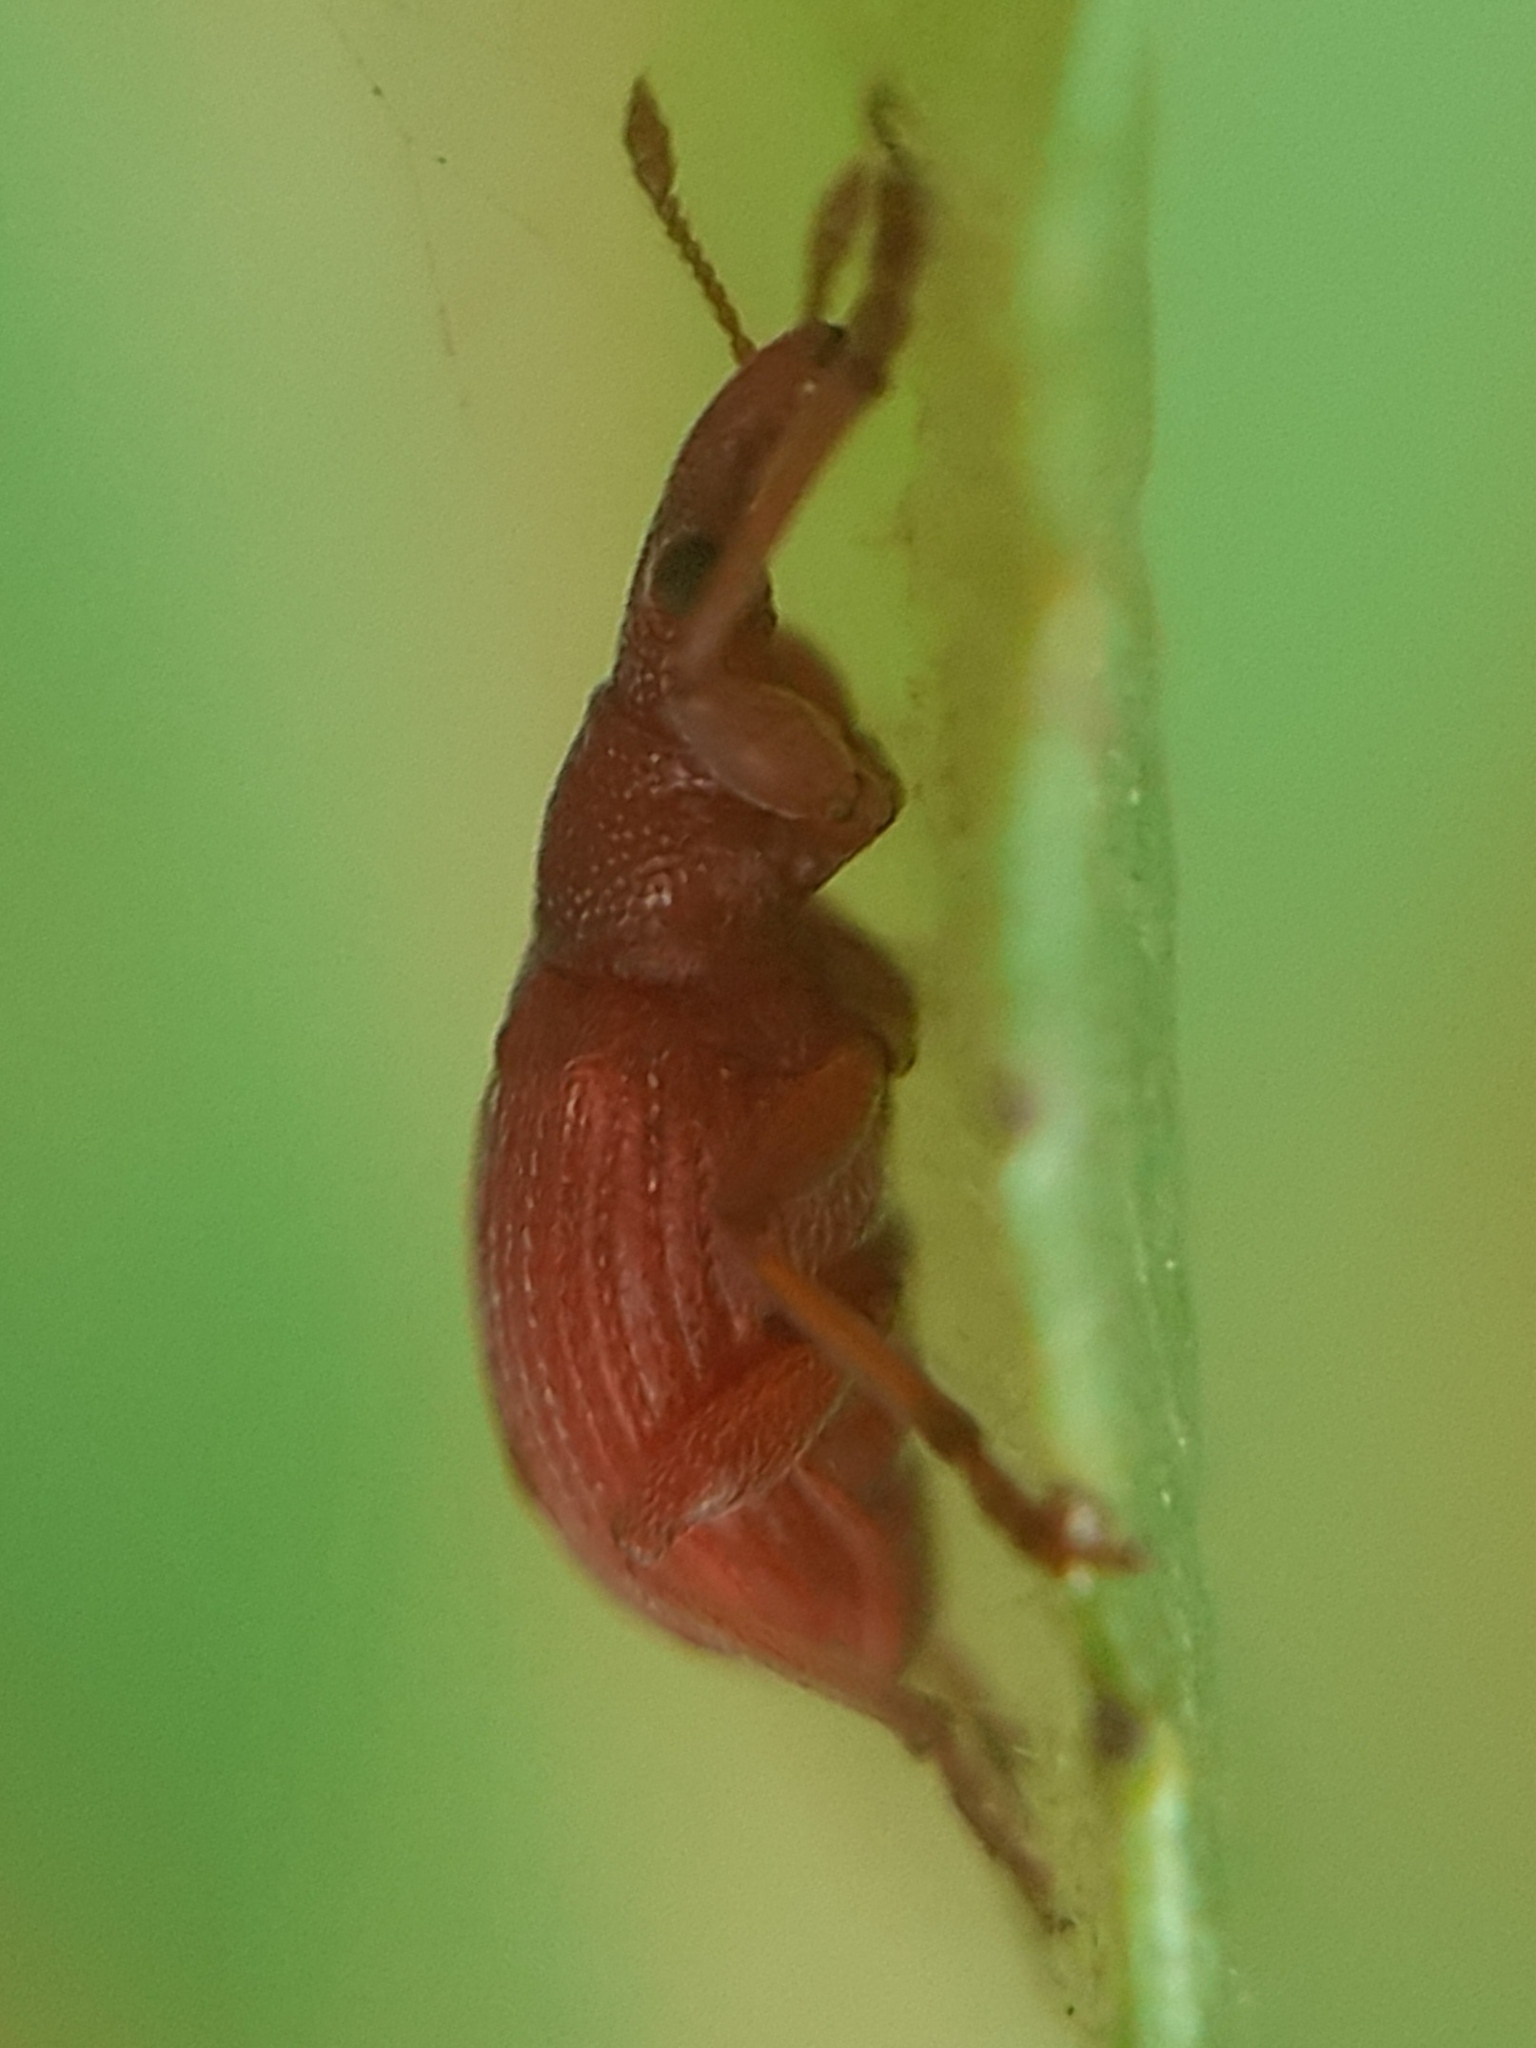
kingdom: Animalia
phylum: Arthropoda
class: Insecta
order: Coleoptera
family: Apionidae
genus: Apion
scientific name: Apion frumentarium
